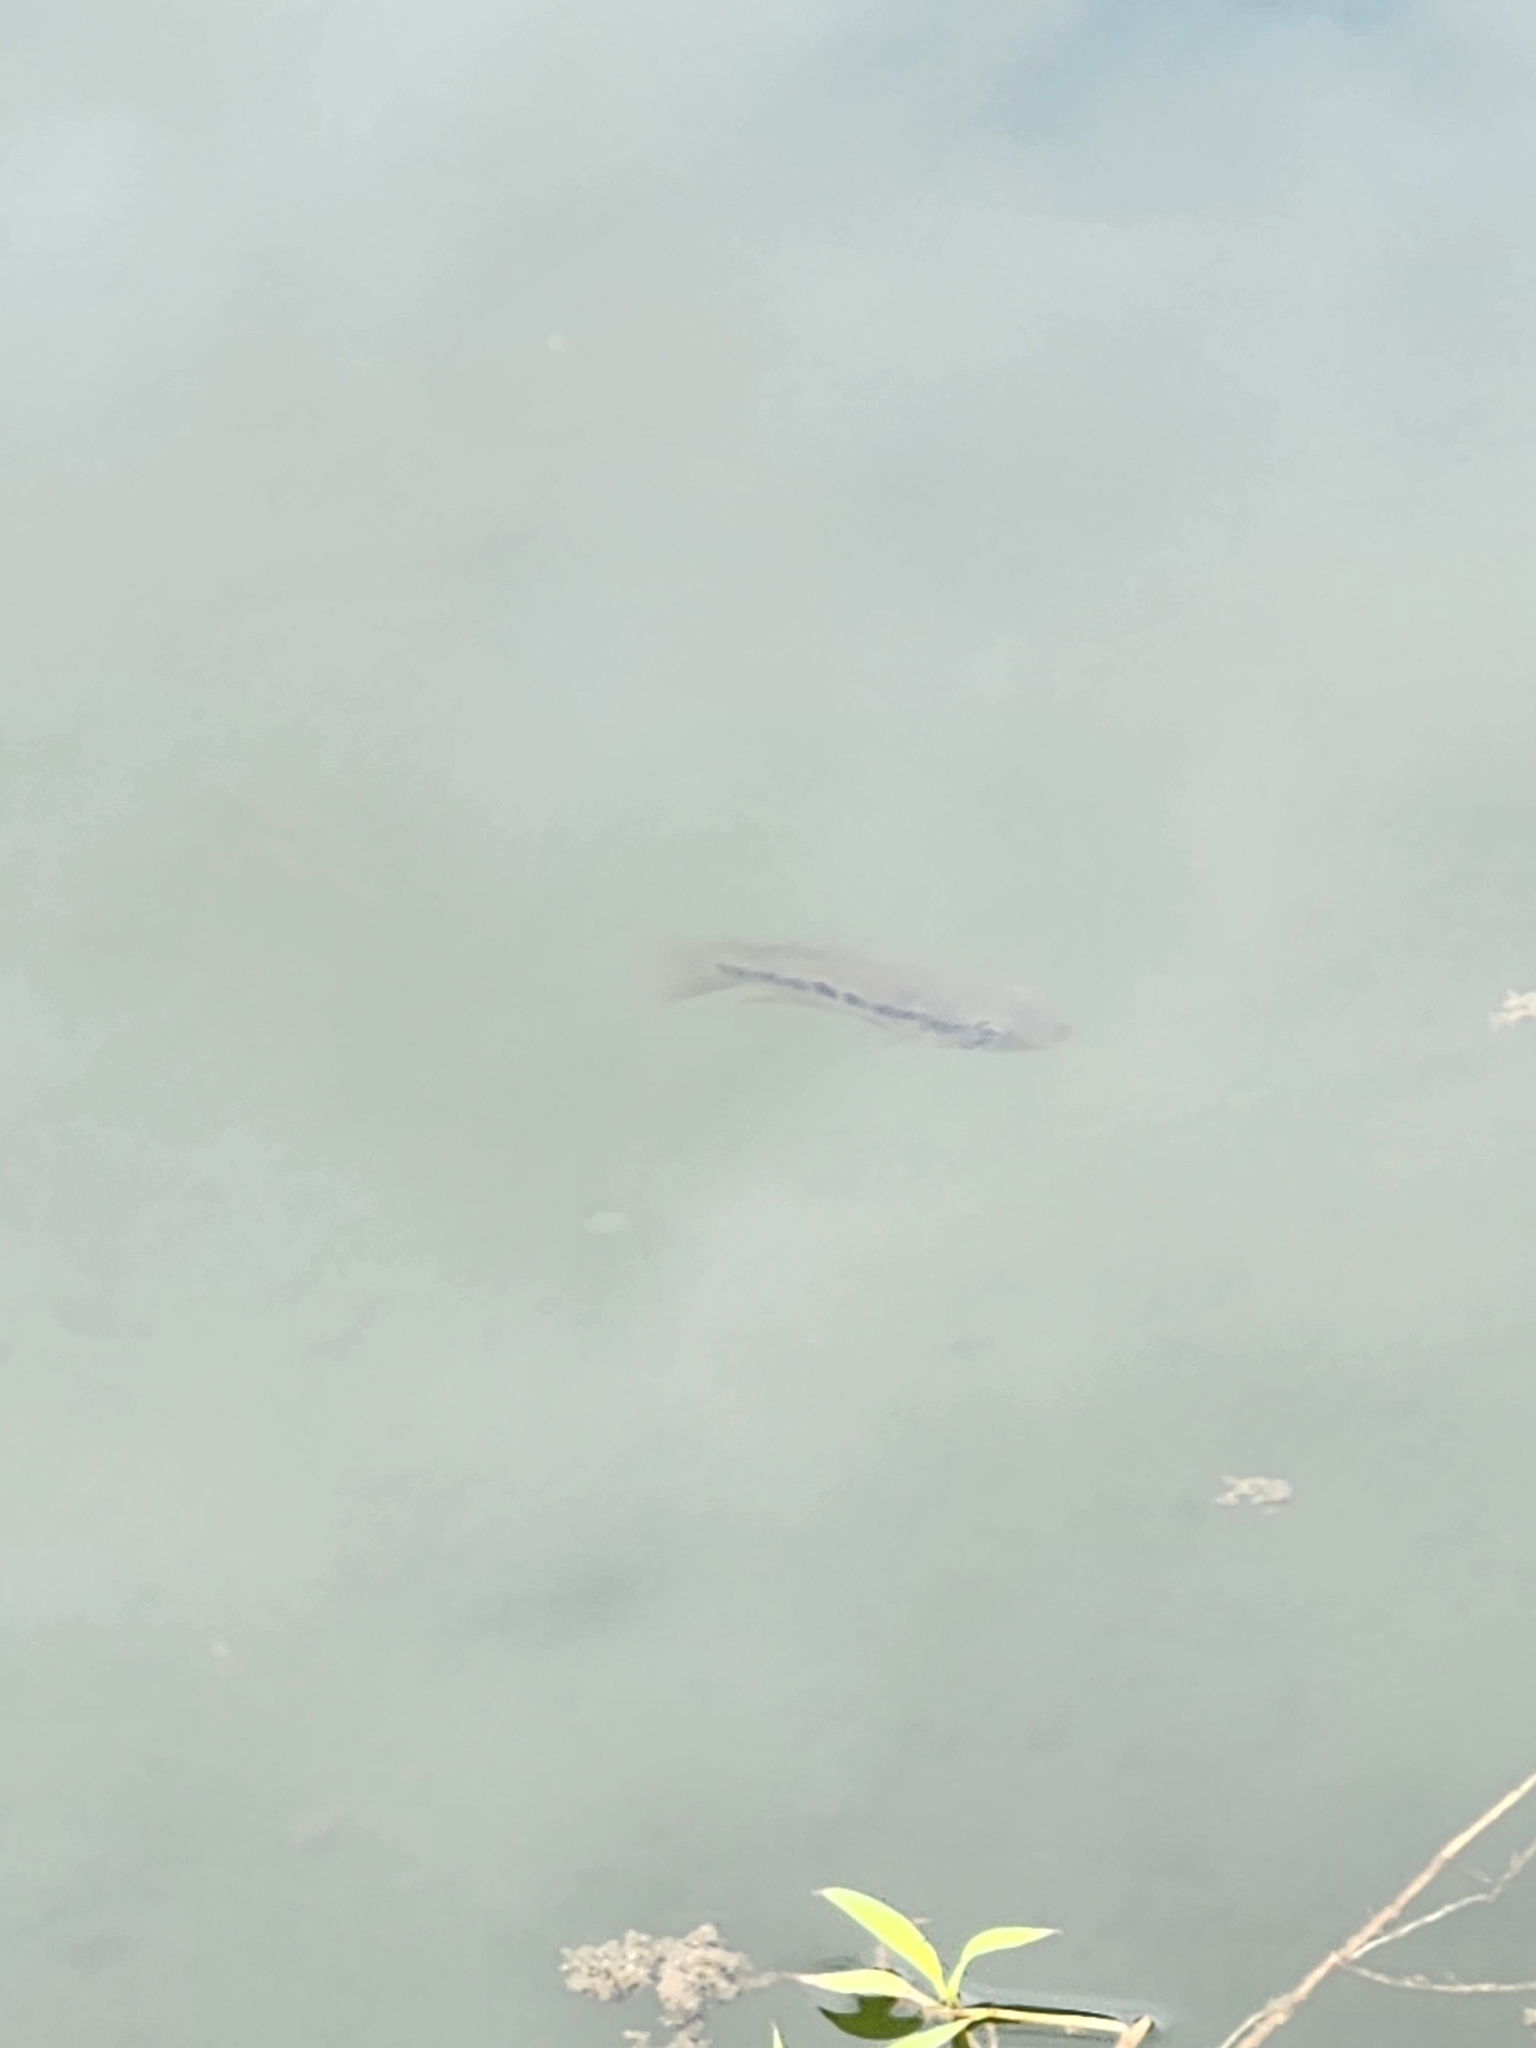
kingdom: Animalia
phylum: Chordata
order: Perciformes
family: Cichlidae
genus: Parachromis
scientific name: Parachromis managuensis
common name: Jaguar guapote
